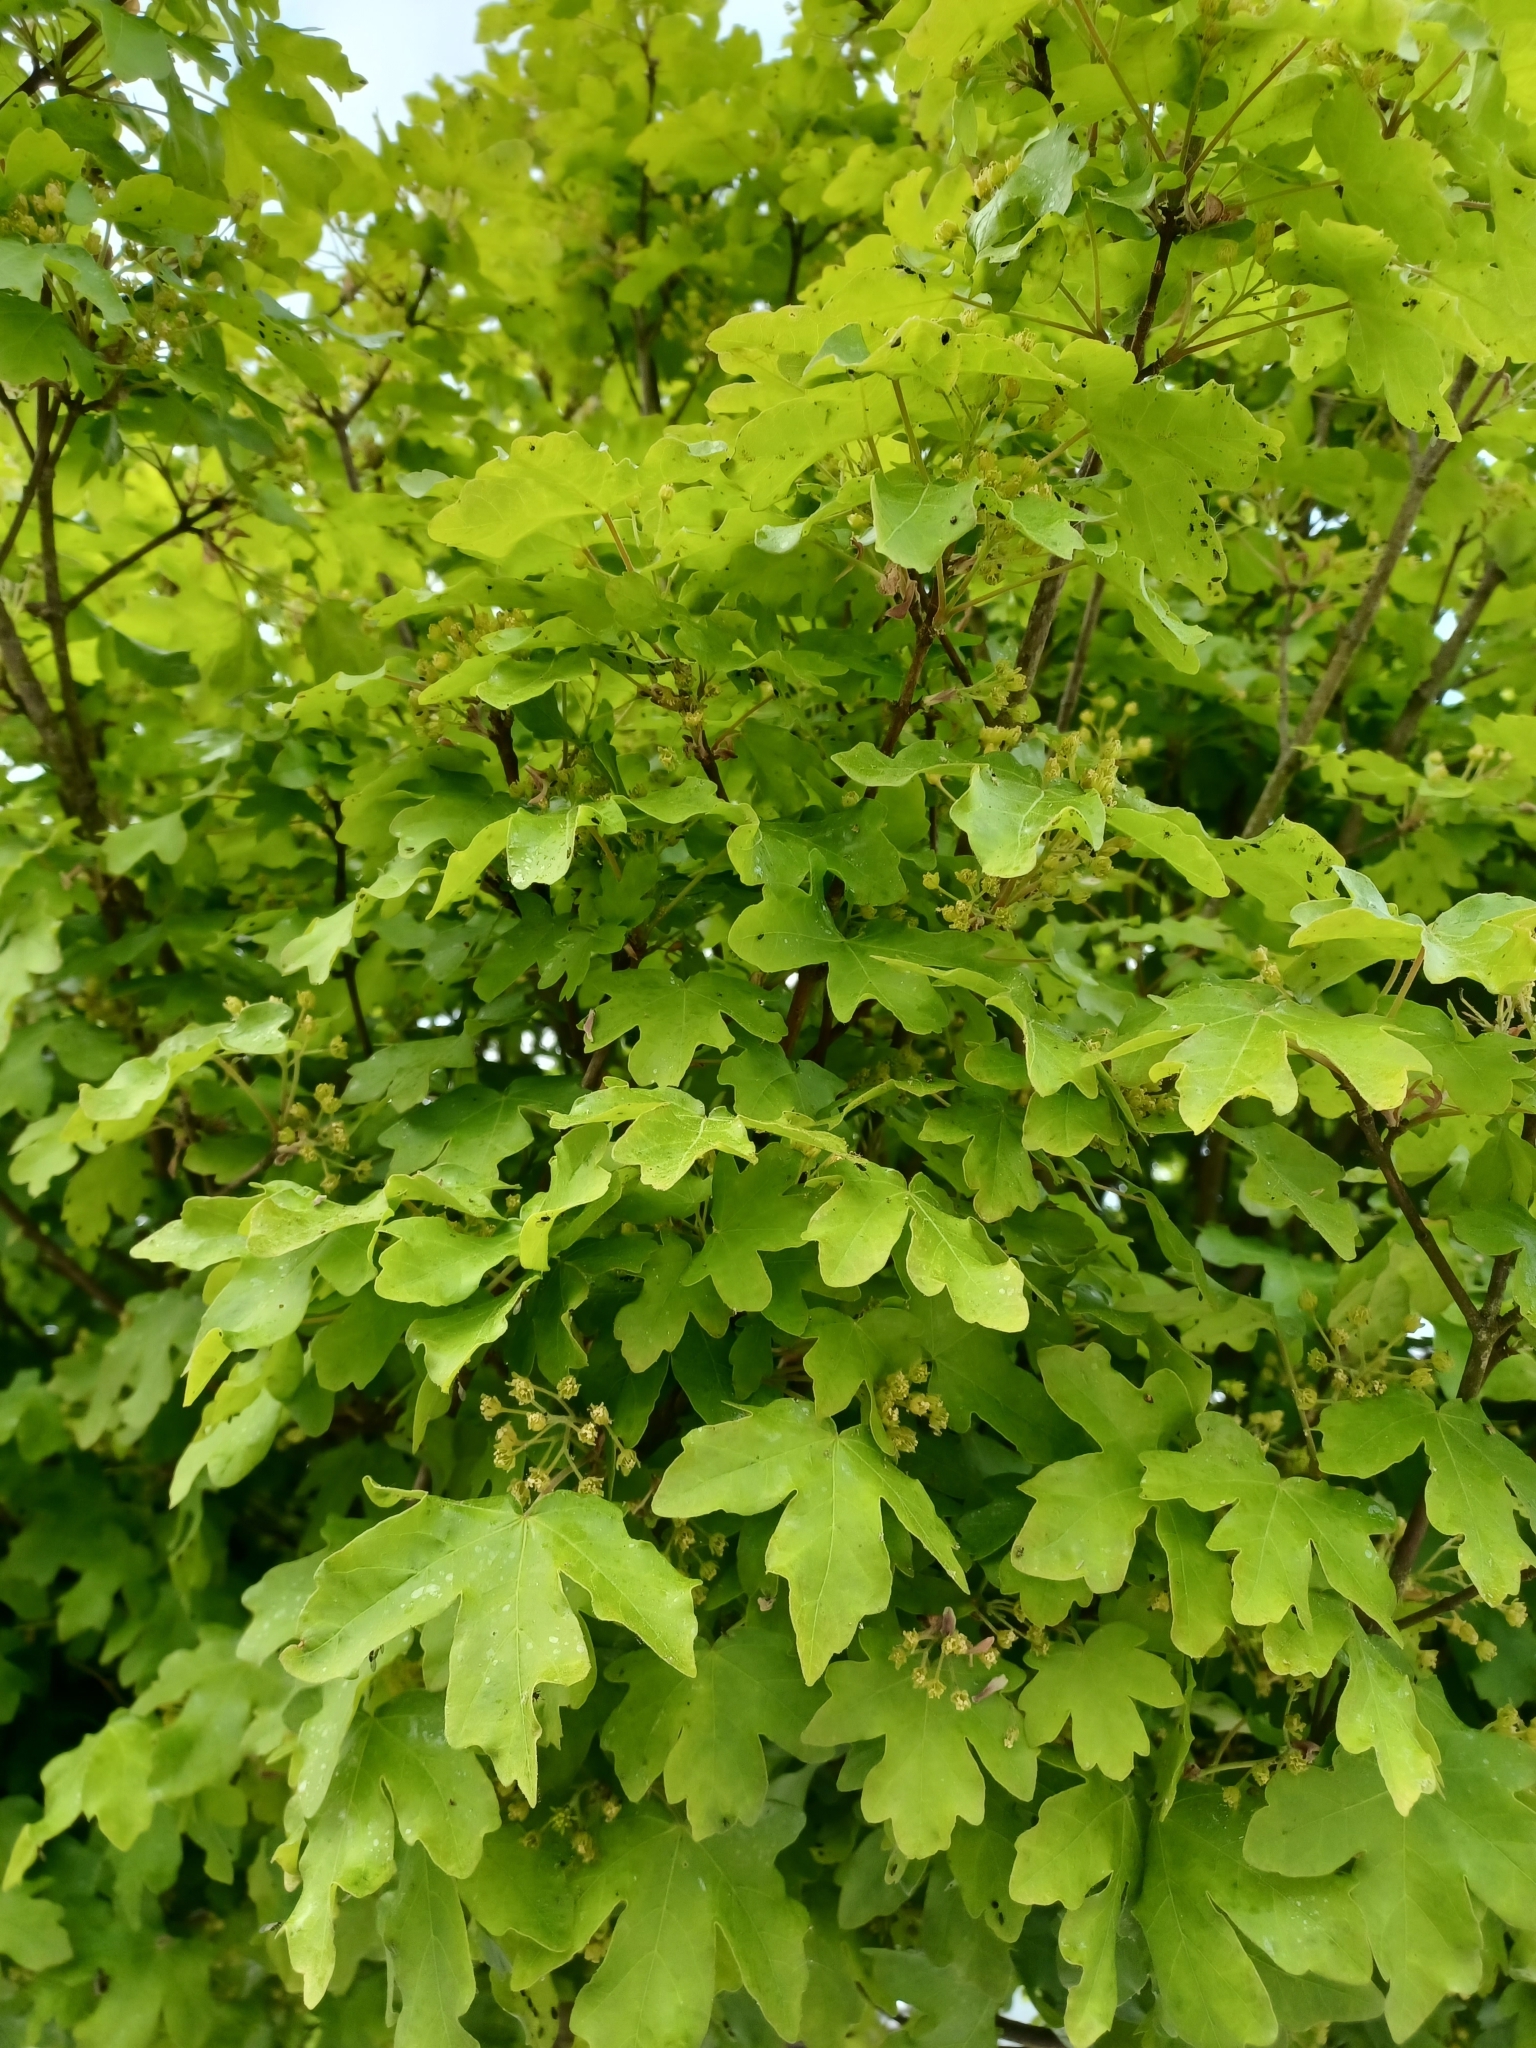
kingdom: Plantae
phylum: Tracheophyta
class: Magnoliopsida
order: Sapindales
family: Sapindaceae
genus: Acer
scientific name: Acer campestre
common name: Field maple
